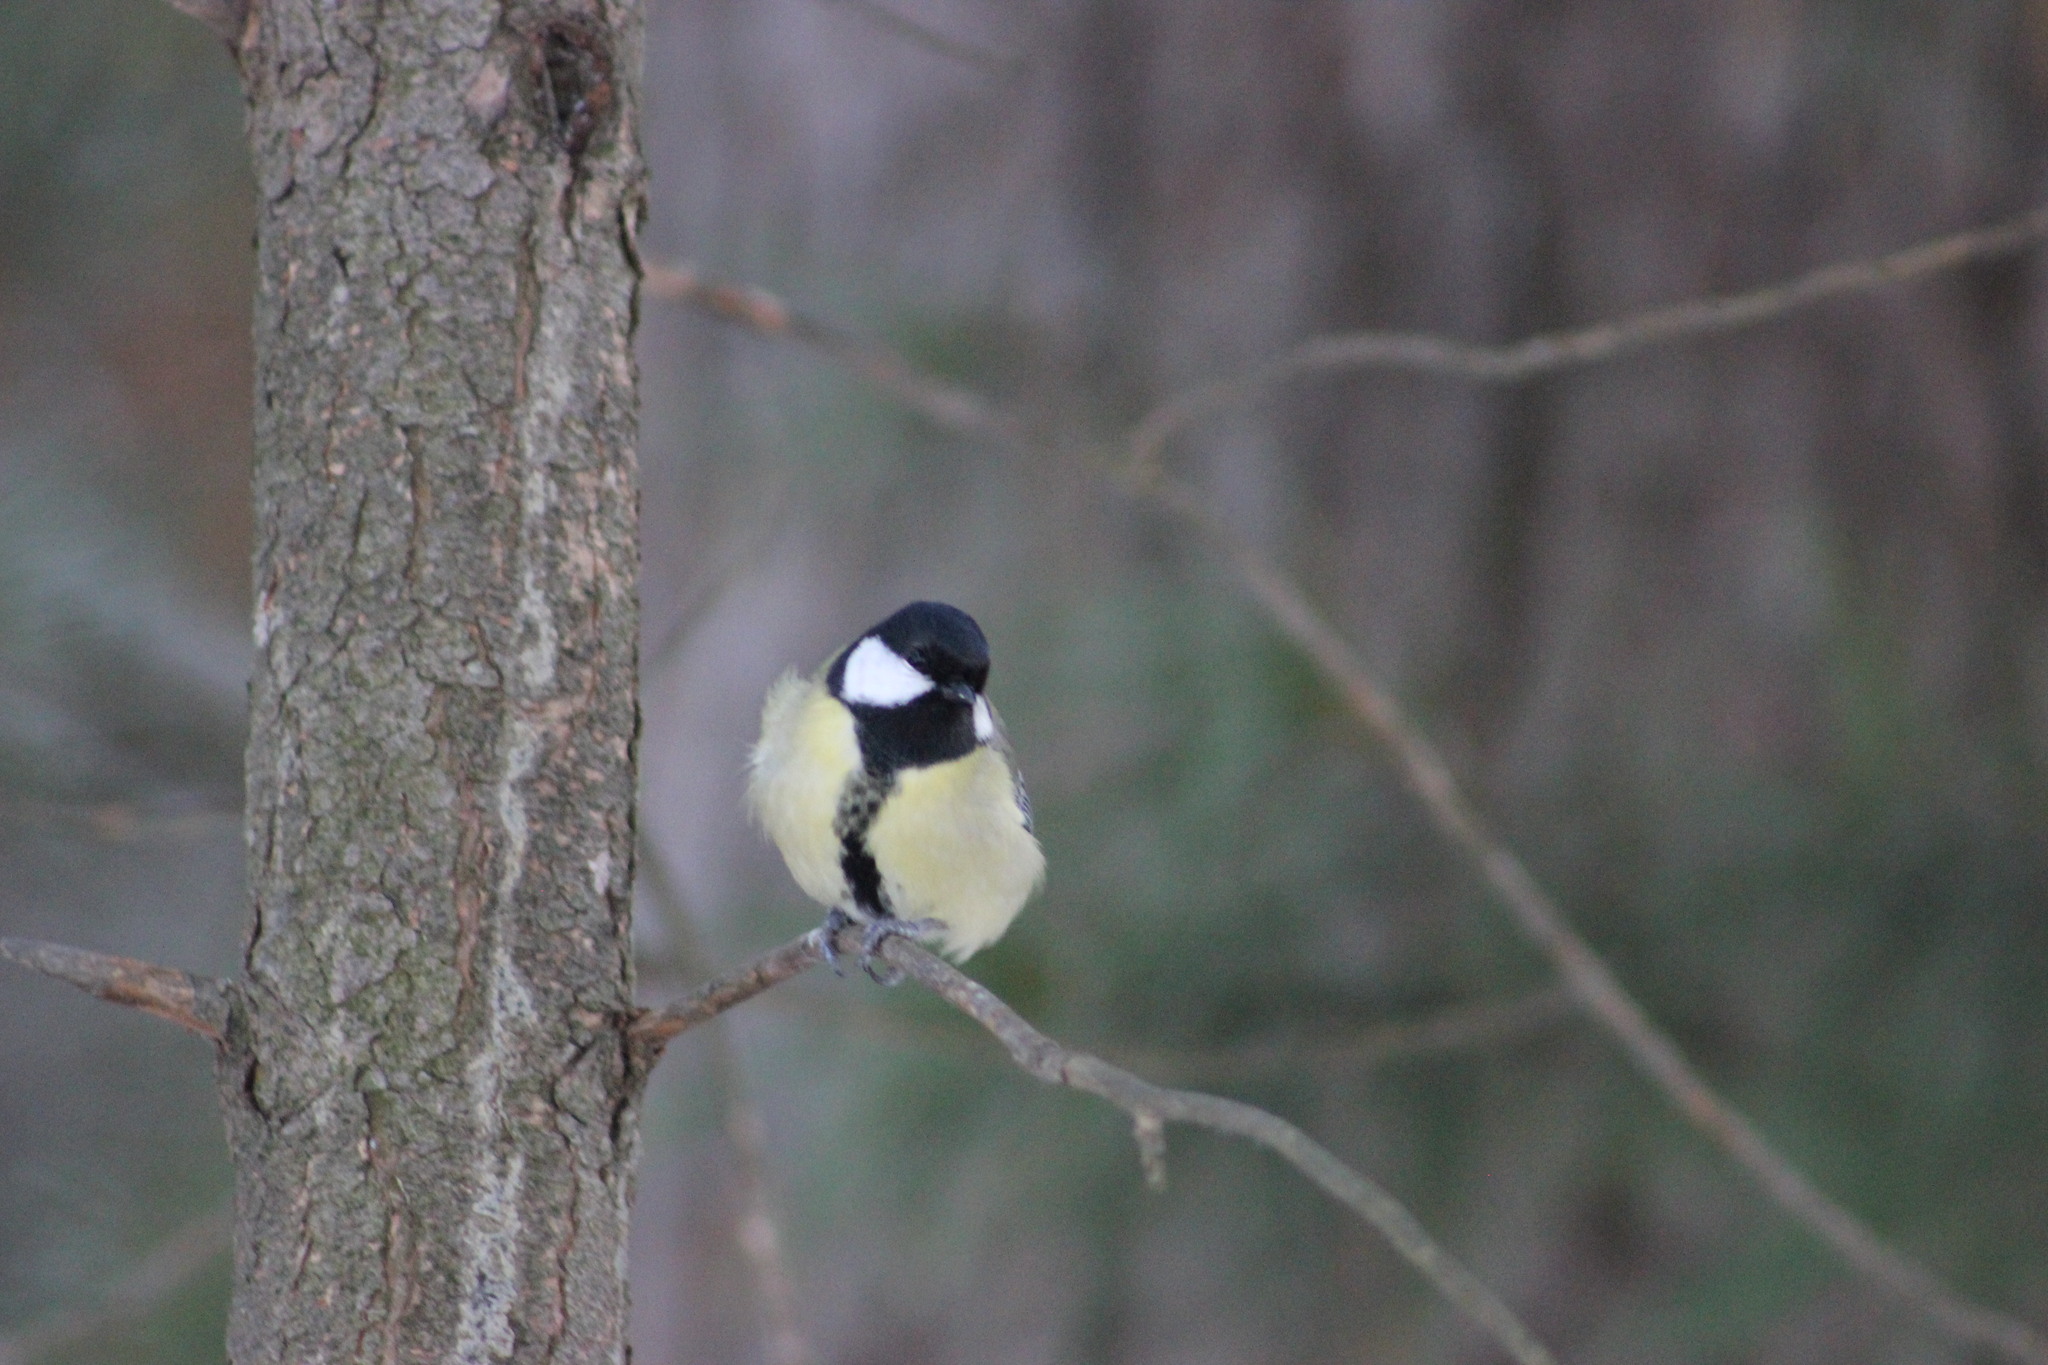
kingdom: Animalia
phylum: Chordata
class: Aves
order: Passeriformes
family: Paridae
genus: Parus
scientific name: Parus major
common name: Great tit
